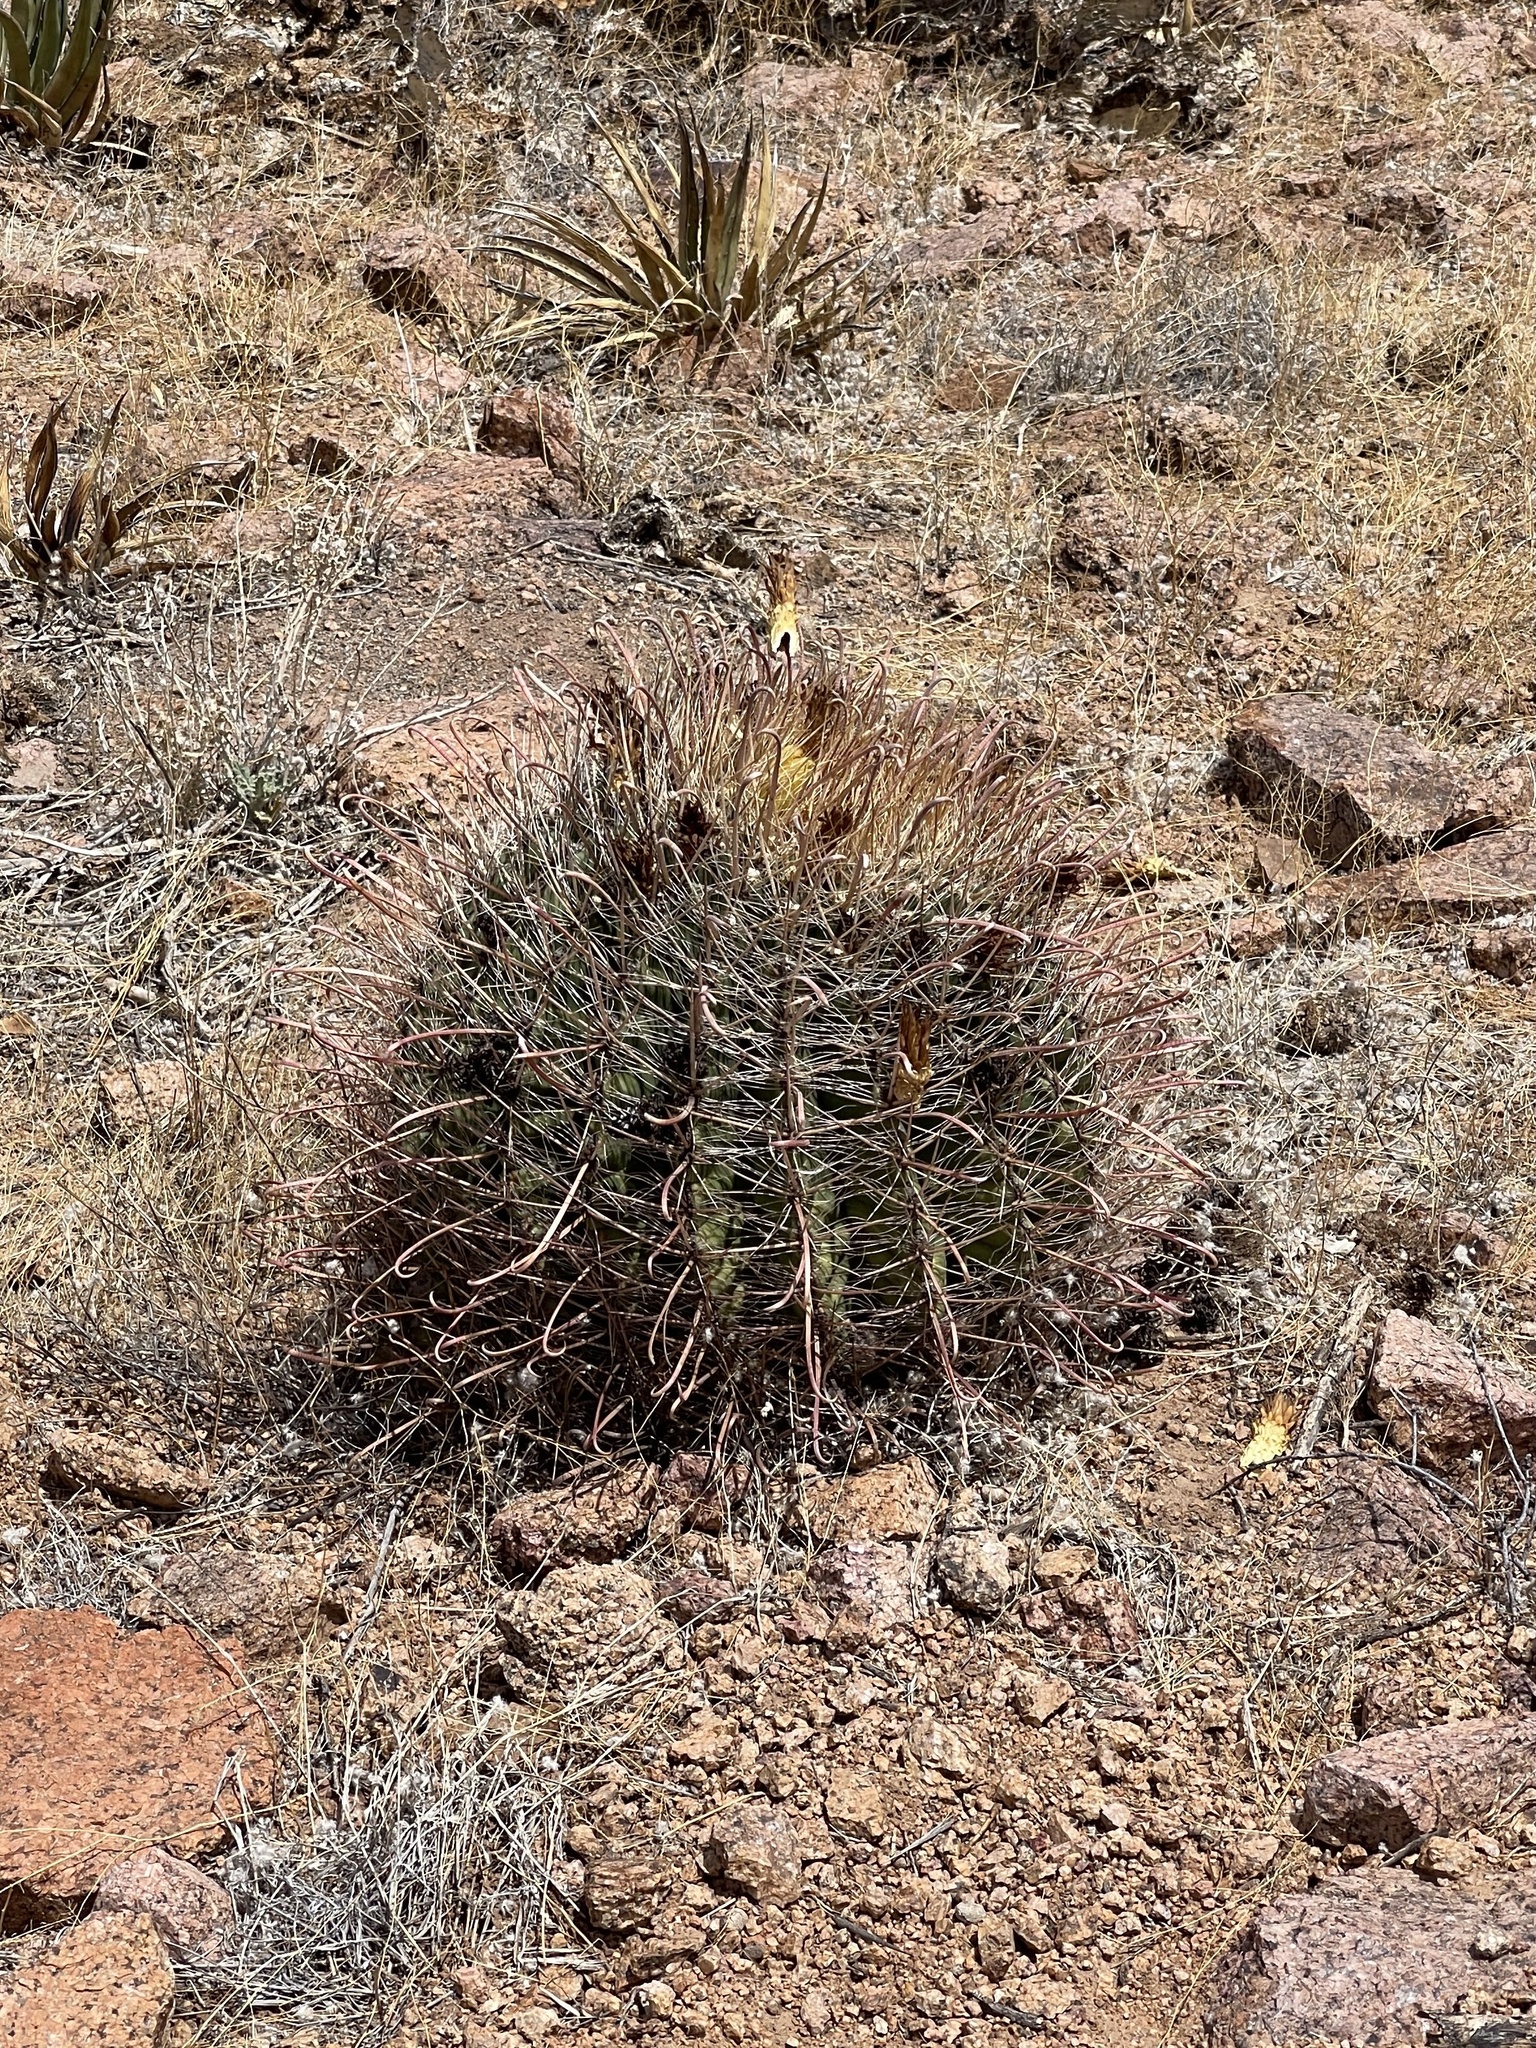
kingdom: Plantae
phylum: Tracheophyta
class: Magnoliopsida
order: Caryophyllales
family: Cactaceae
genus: Ferocactus
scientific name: Ferocactus wislizeni
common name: Candy barrel cactus
